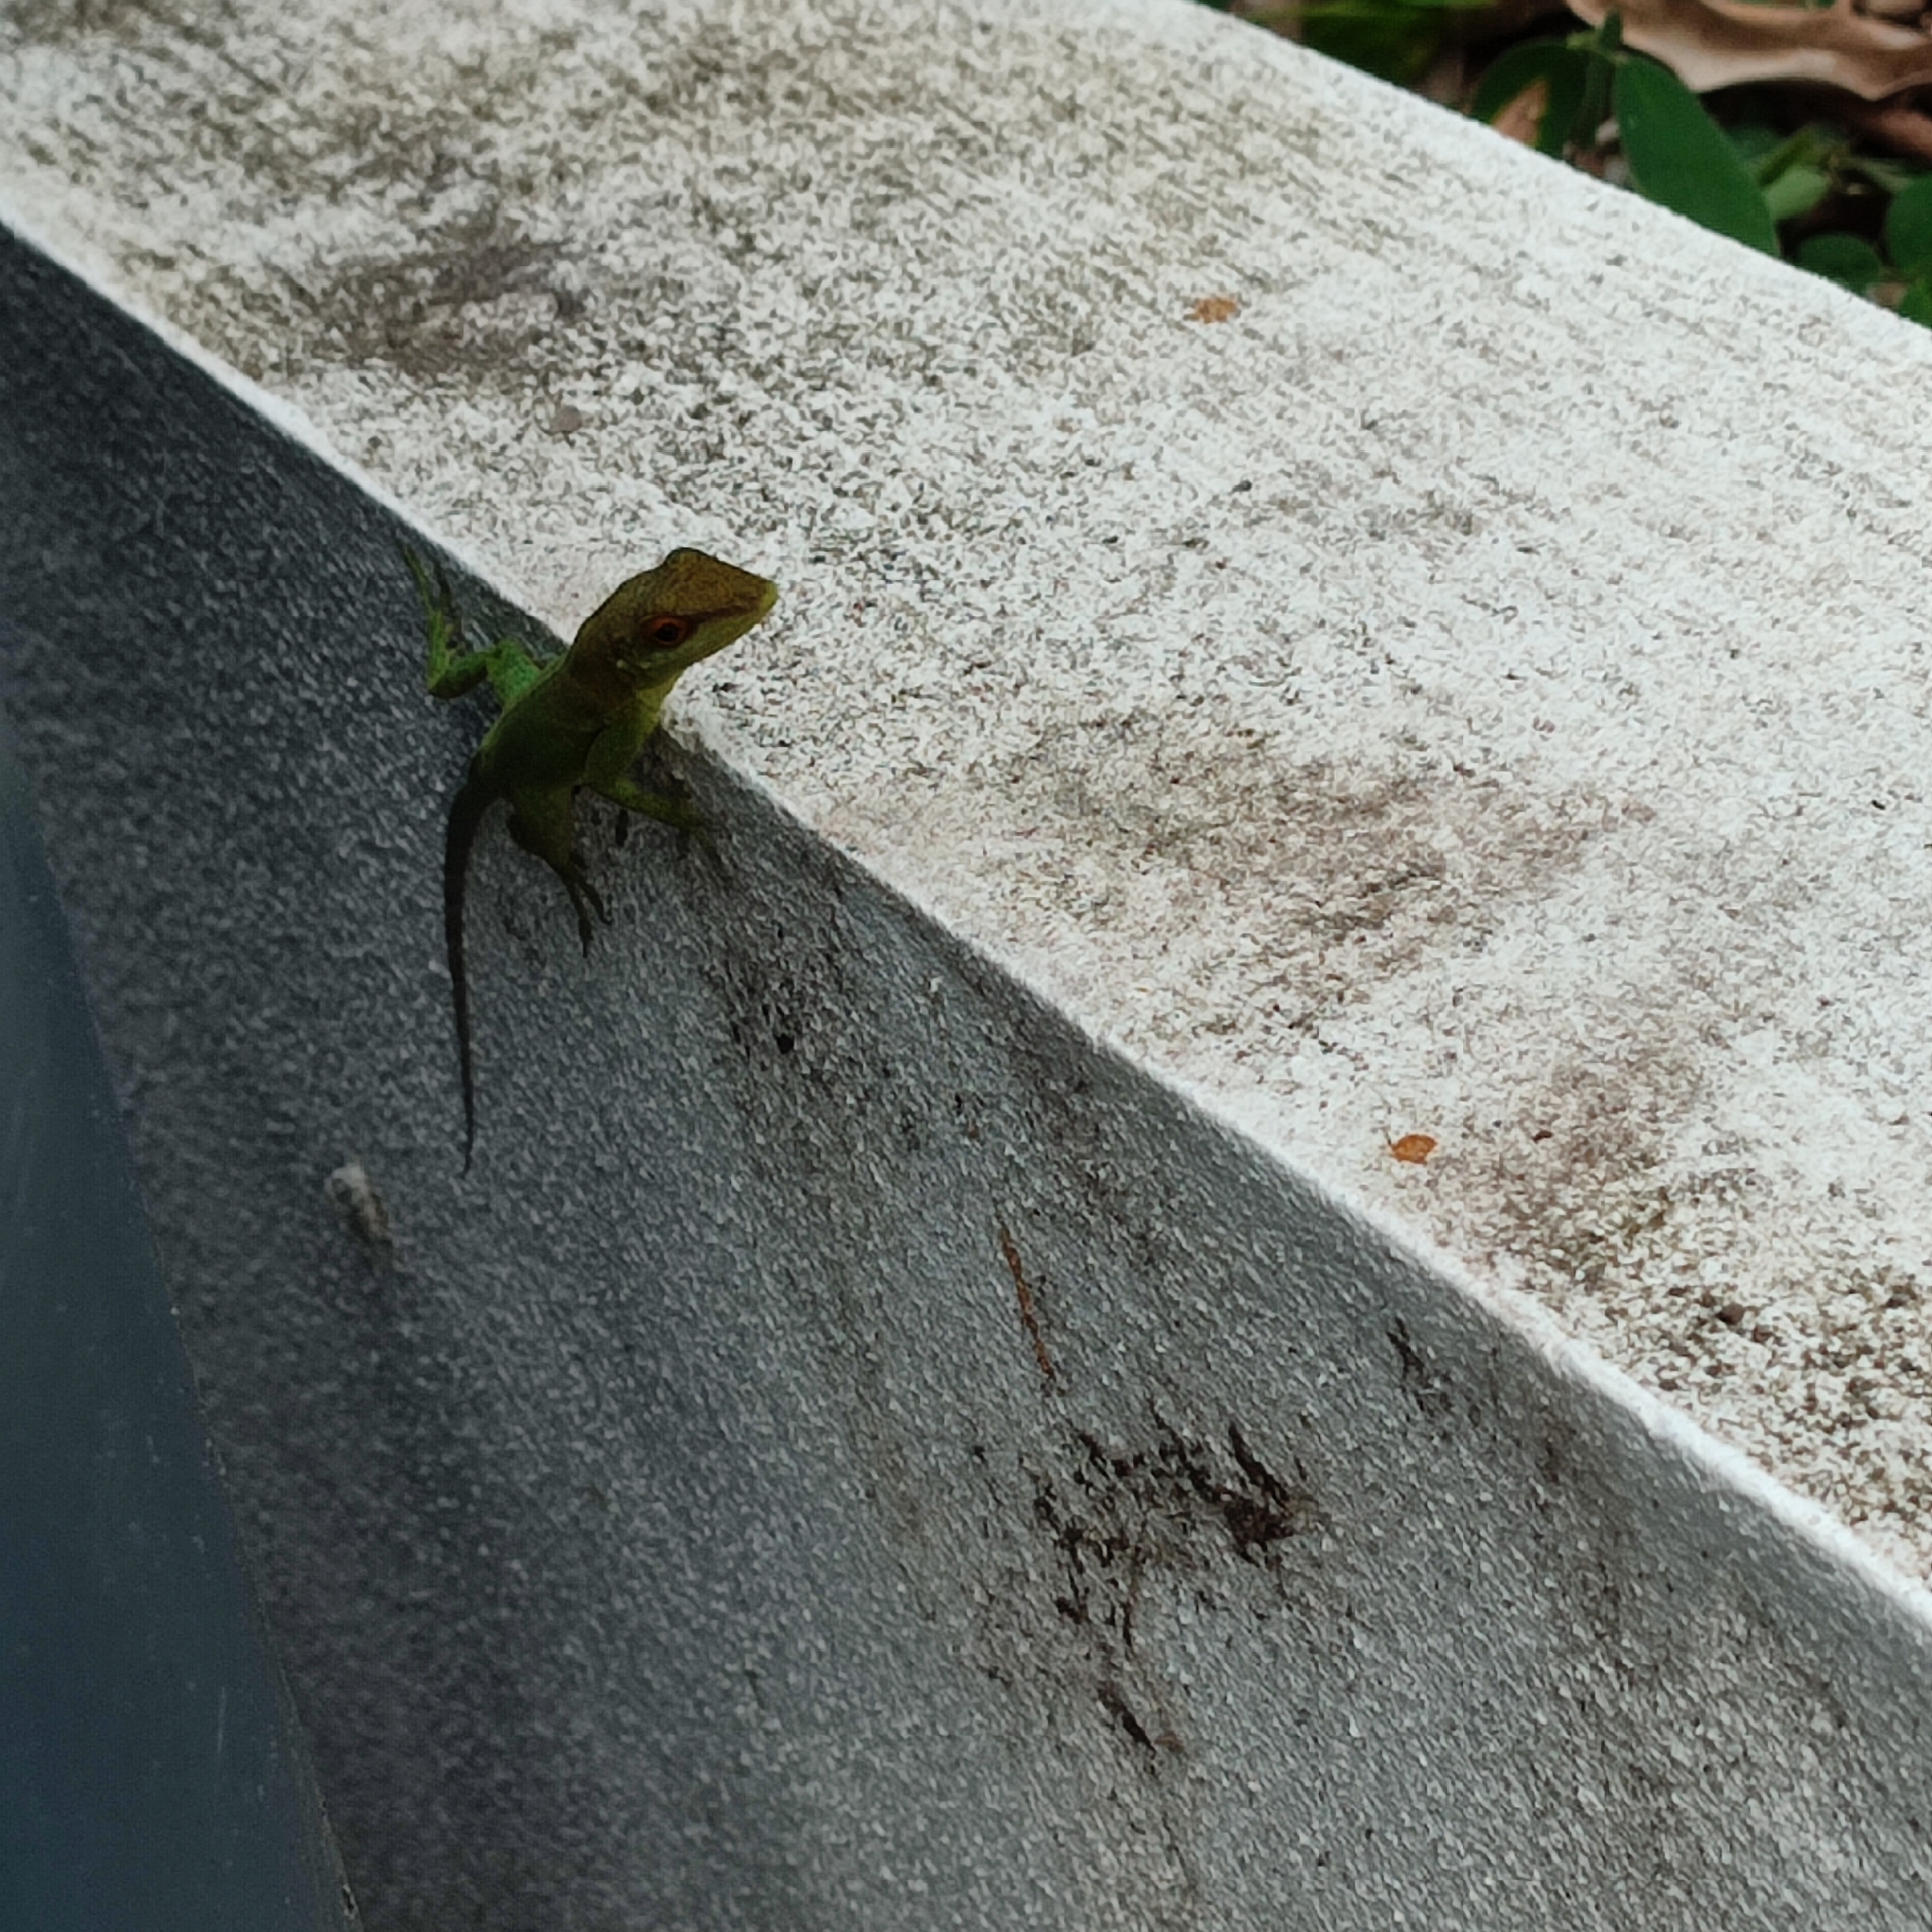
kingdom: Animalia
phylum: Chordata
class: Squamata
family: Dactyloidae
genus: Anolis
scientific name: Anolis lividus
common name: Montserrat anole
